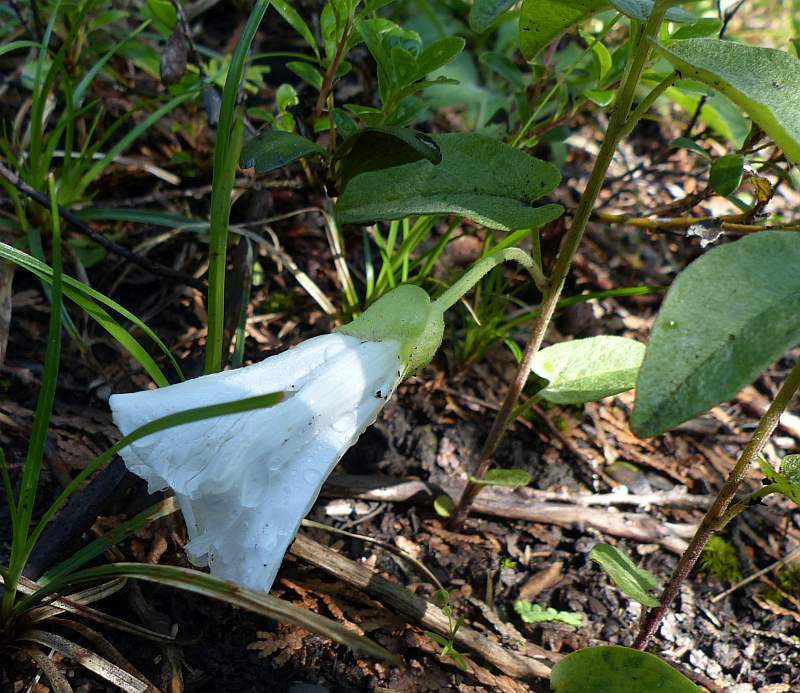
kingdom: Plantae
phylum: Tracheophyta
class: Magnoliopsida
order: Solanales
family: Convolvulaceae
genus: Calystegia
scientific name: Calystegia spithamaea
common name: Dwarf bindweed
